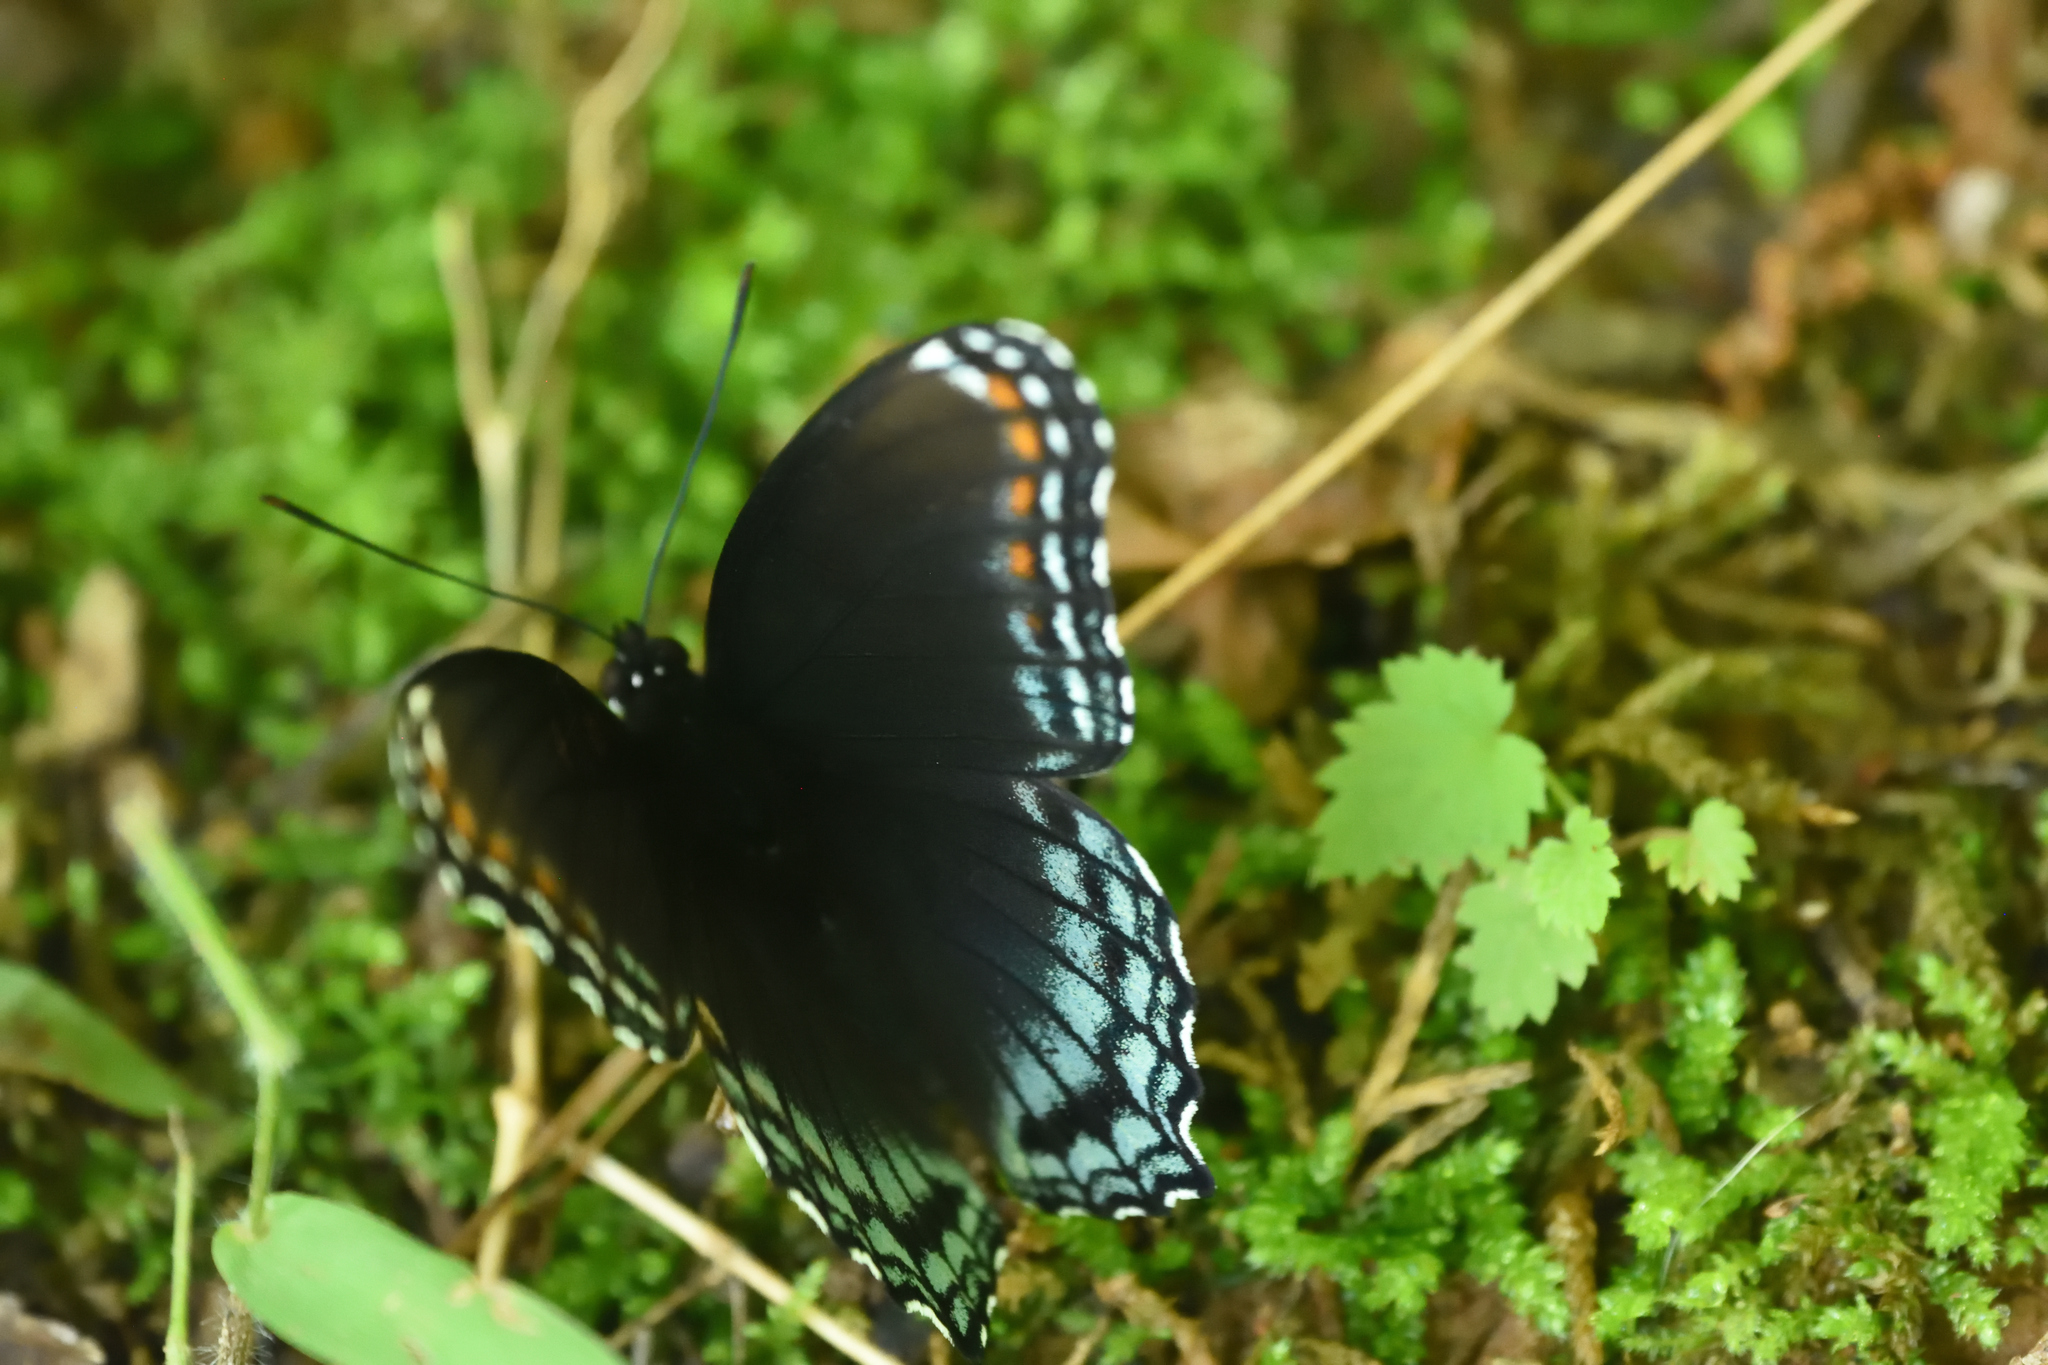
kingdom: Animalia
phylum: Arthropoda
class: Insecta
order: Lepidoptera
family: Nymphalidae
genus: Limenitis
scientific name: Limenitis astyanax
